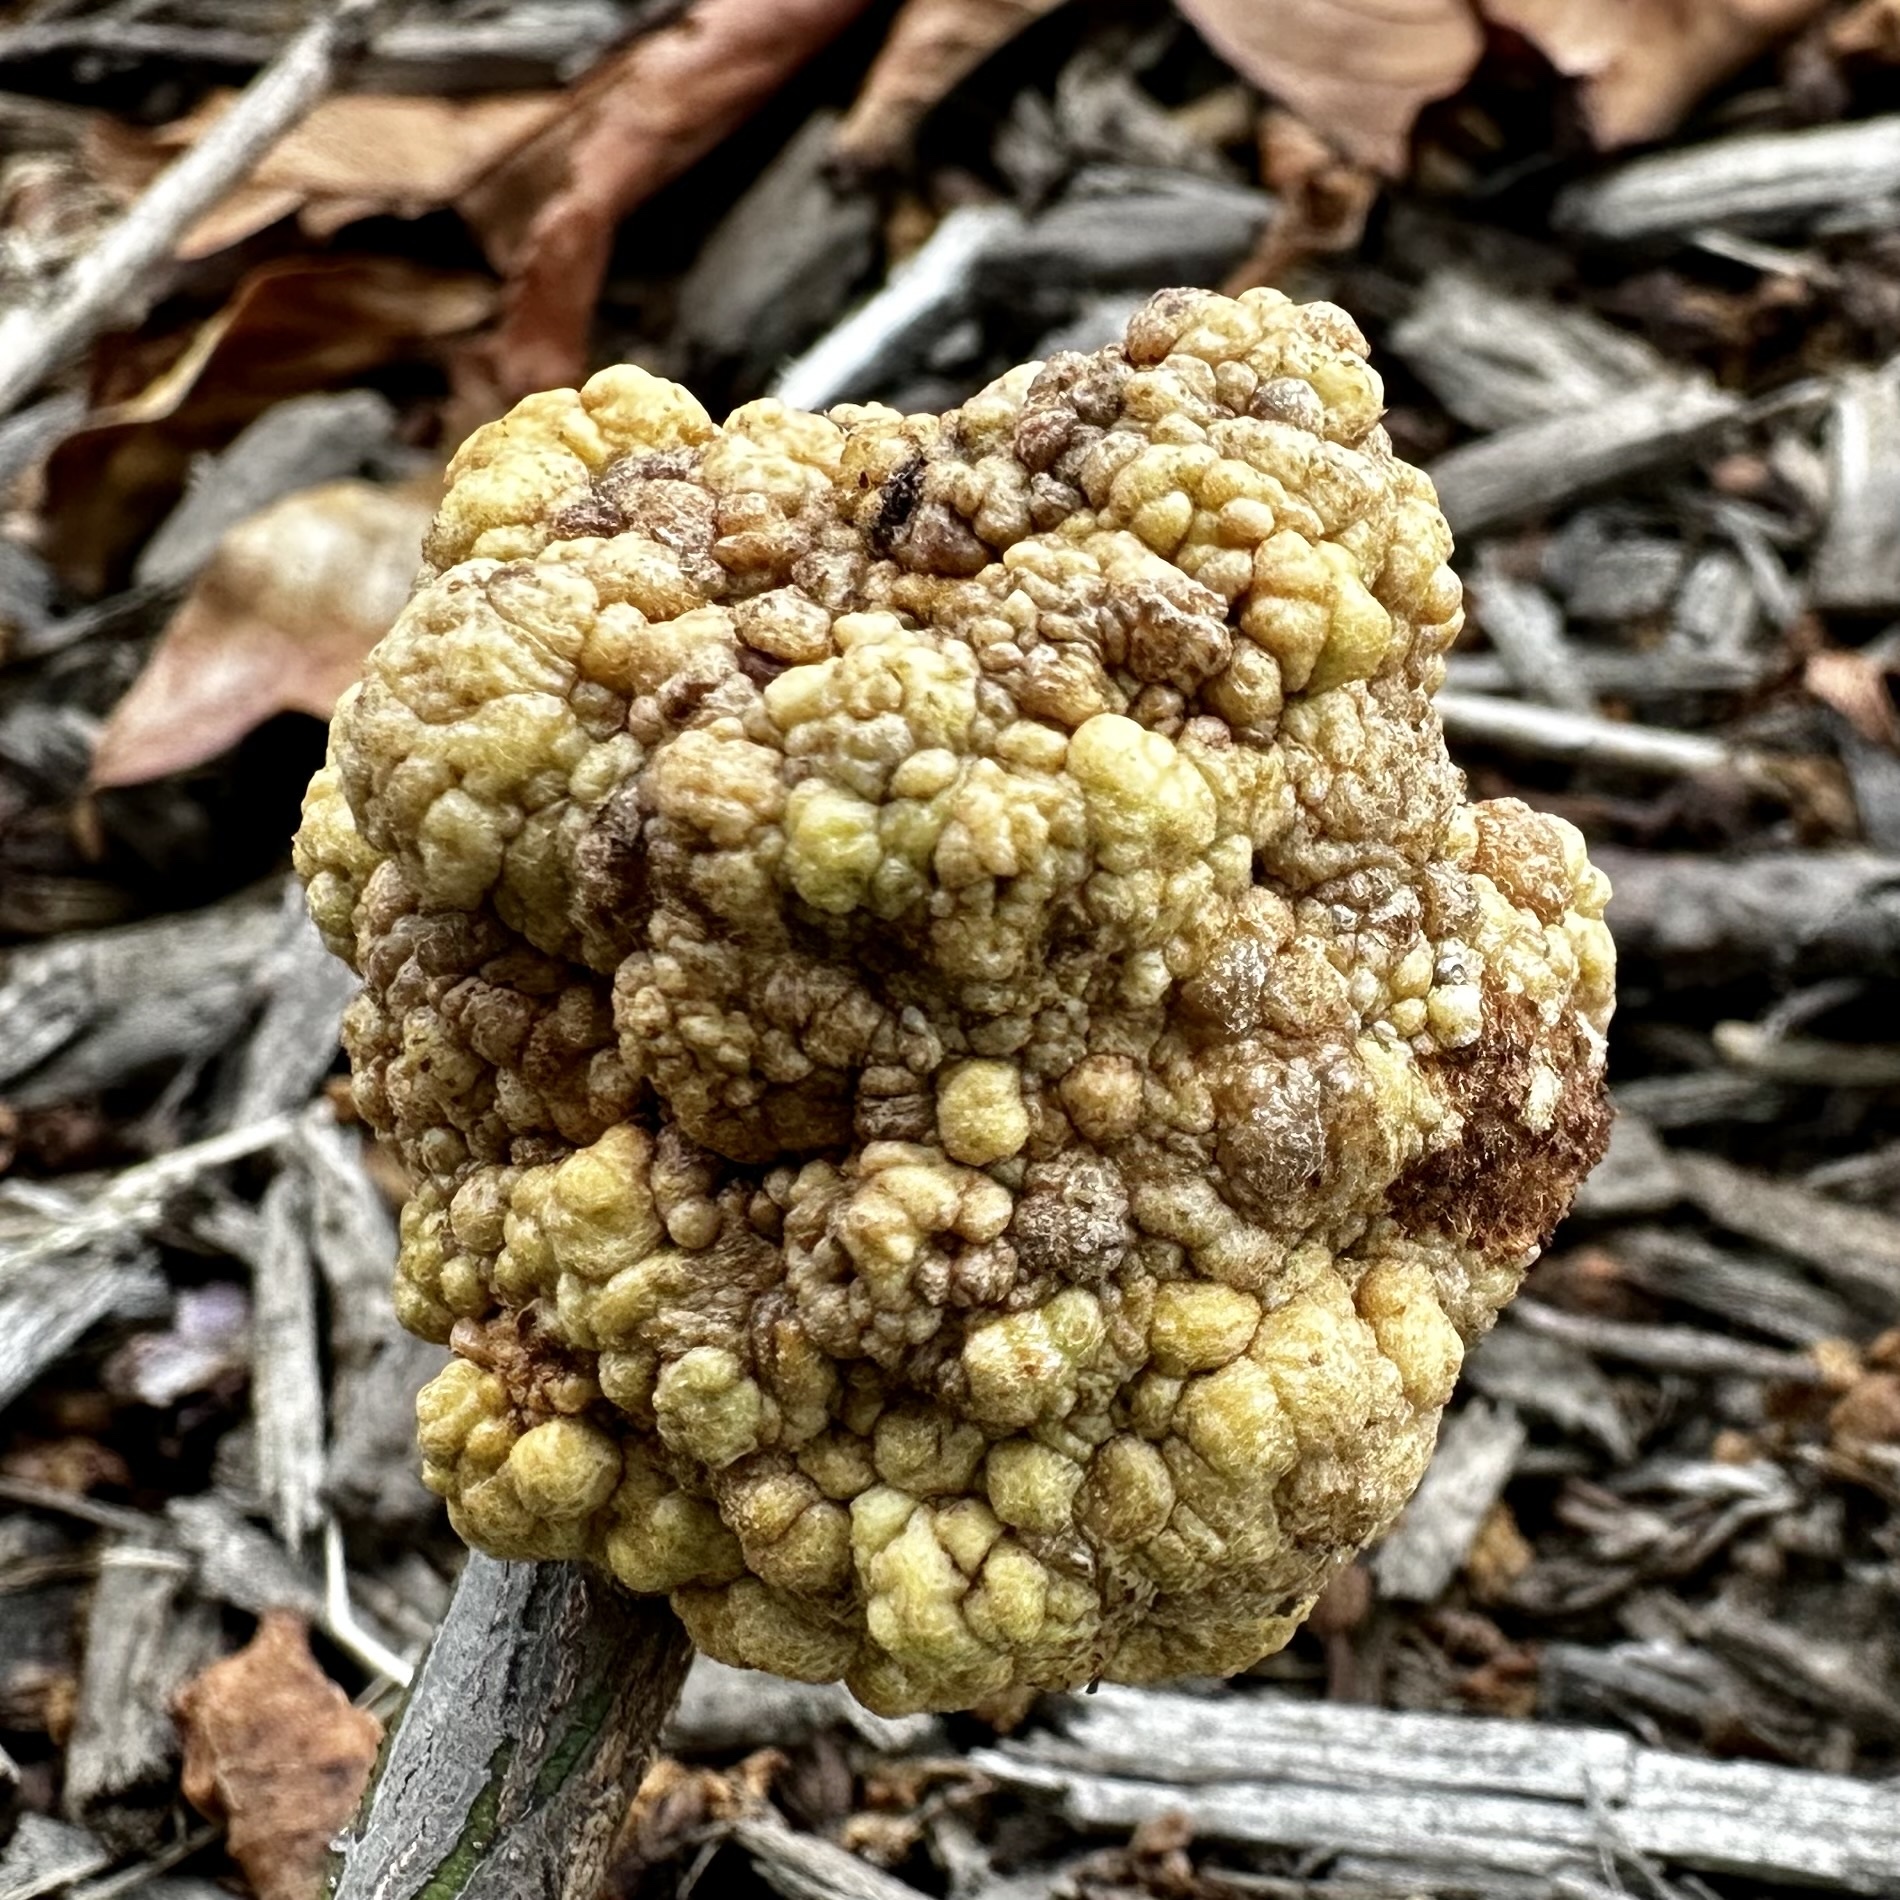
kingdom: Bacteria
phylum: Proteobacteria
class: Alphaproteobacteria
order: Rhizobiales
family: Rhizobiaceae
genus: Rhizobium
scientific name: Rhizobium Agrobacterium radiobacter
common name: Bacterial crown gall
